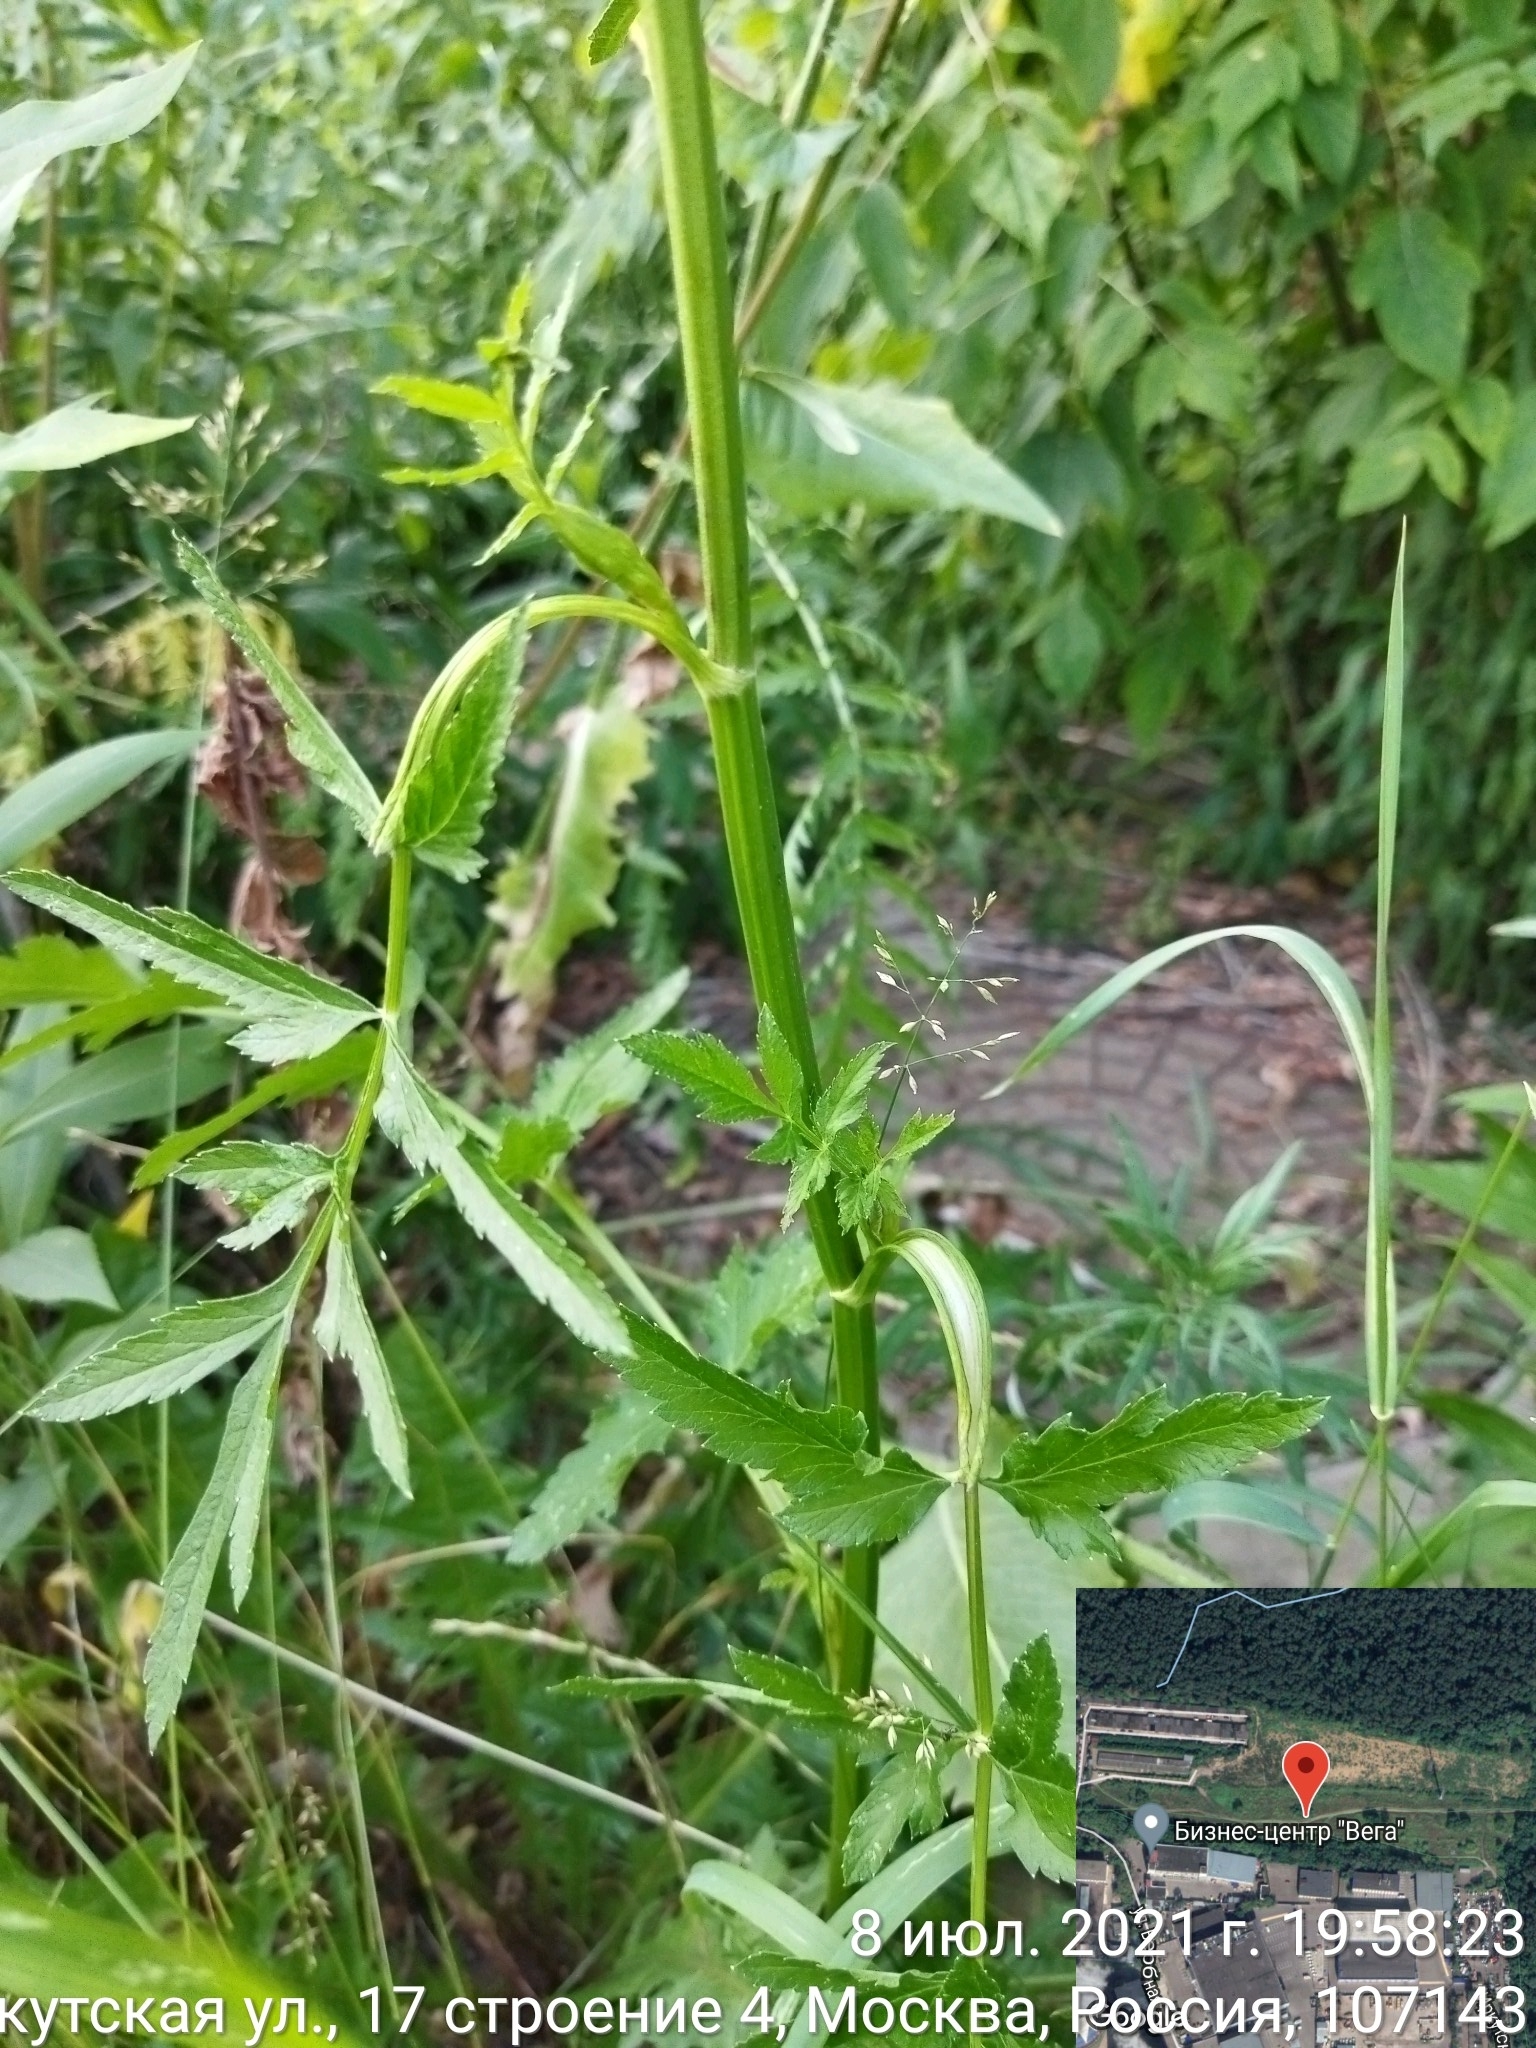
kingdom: Plantae
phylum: Tracheophyta
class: Magnoliopsida
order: Apiales
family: Apiaceae
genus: Pastinaca
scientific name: Pastinaca sativa
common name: Wild parsnip
